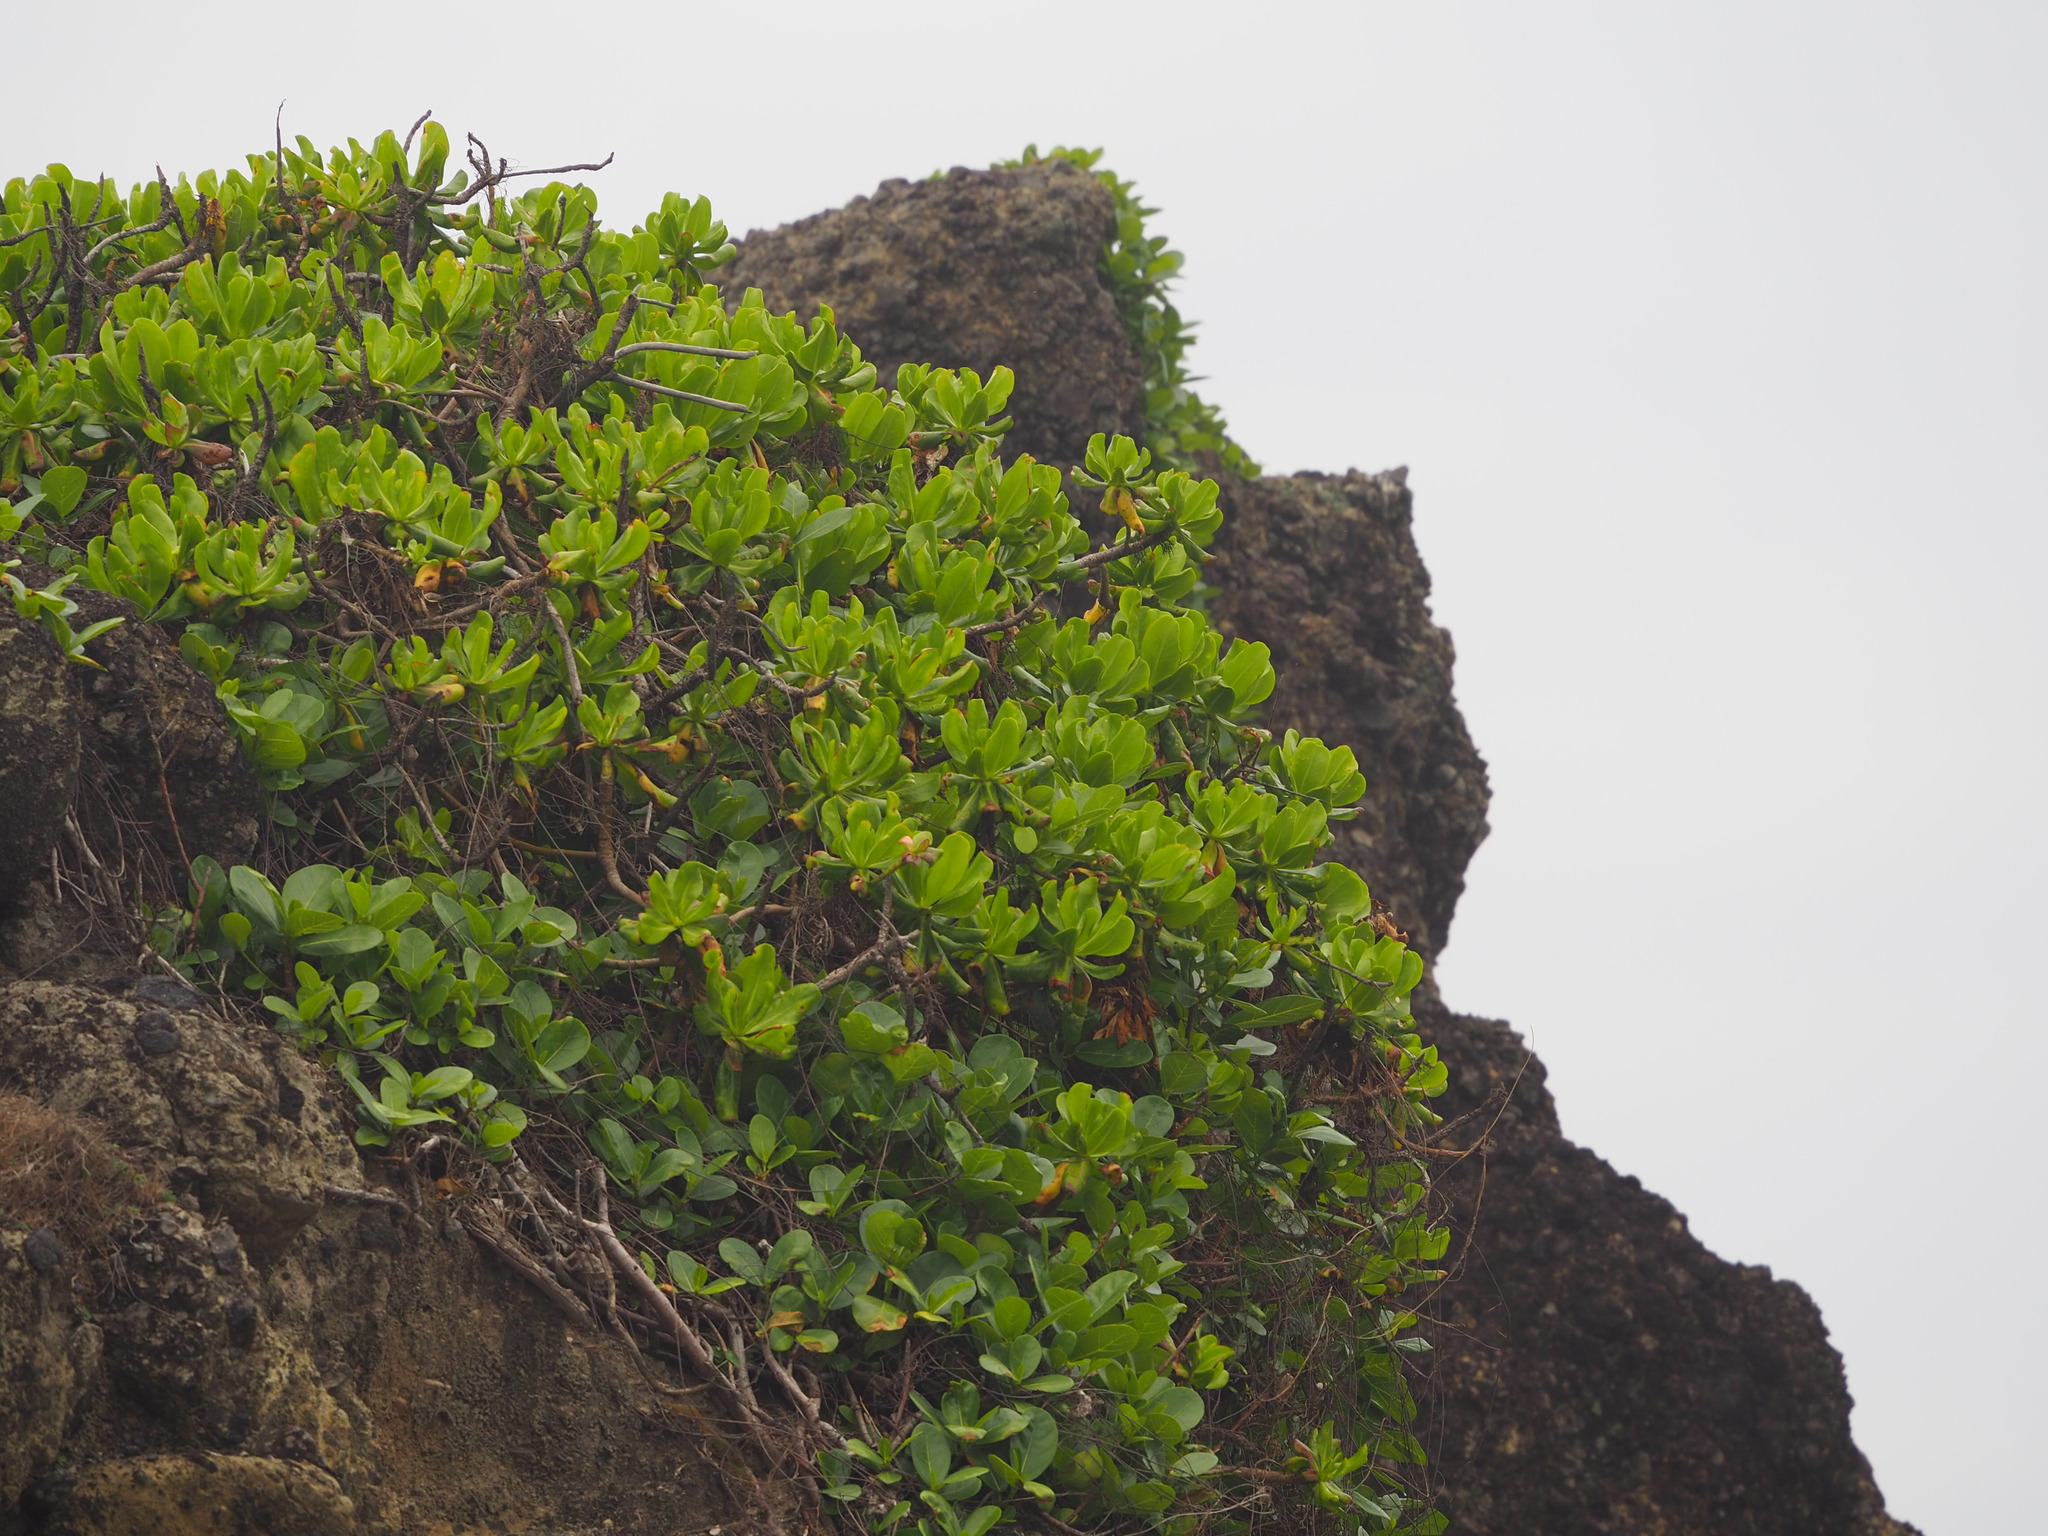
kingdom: Plantae
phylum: Tracheophyta
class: Magnoliopsida
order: Asterales
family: Goodeniaceae
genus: Scaevola
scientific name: Scaevola taccada
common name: Sea lettucetree
